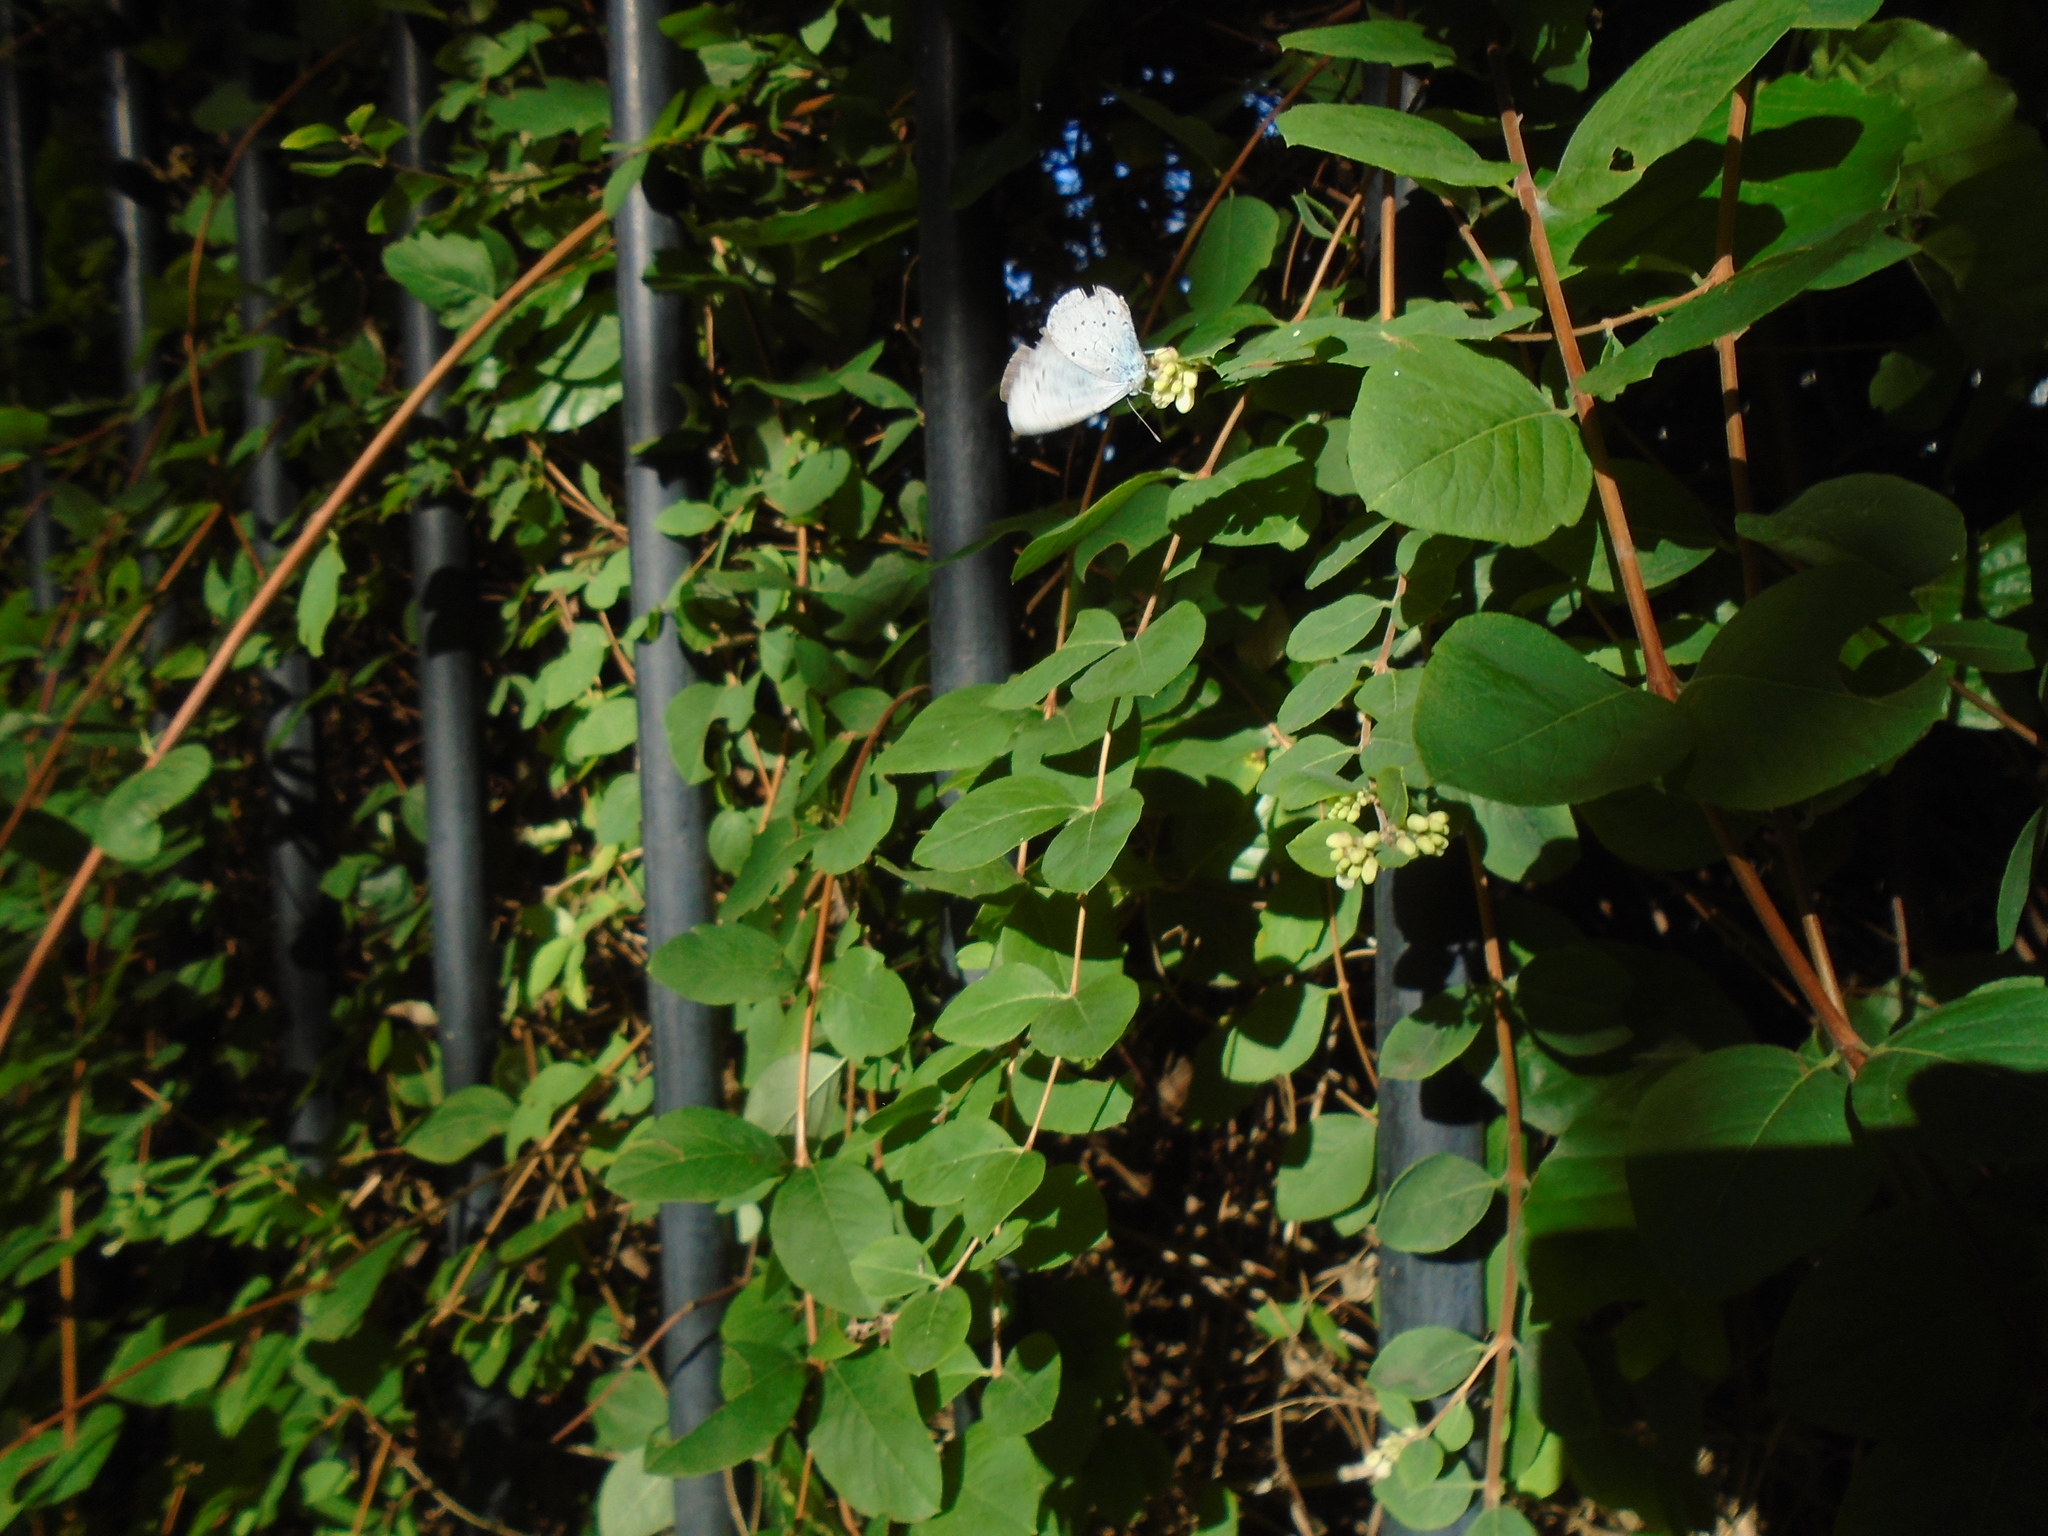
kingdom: Animalia
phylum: Arthropoda
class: Insecta
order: Lepidoptera
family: Lycaenidae
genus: Celastrina
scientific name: Celastrina argiolus
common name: Holly blue
